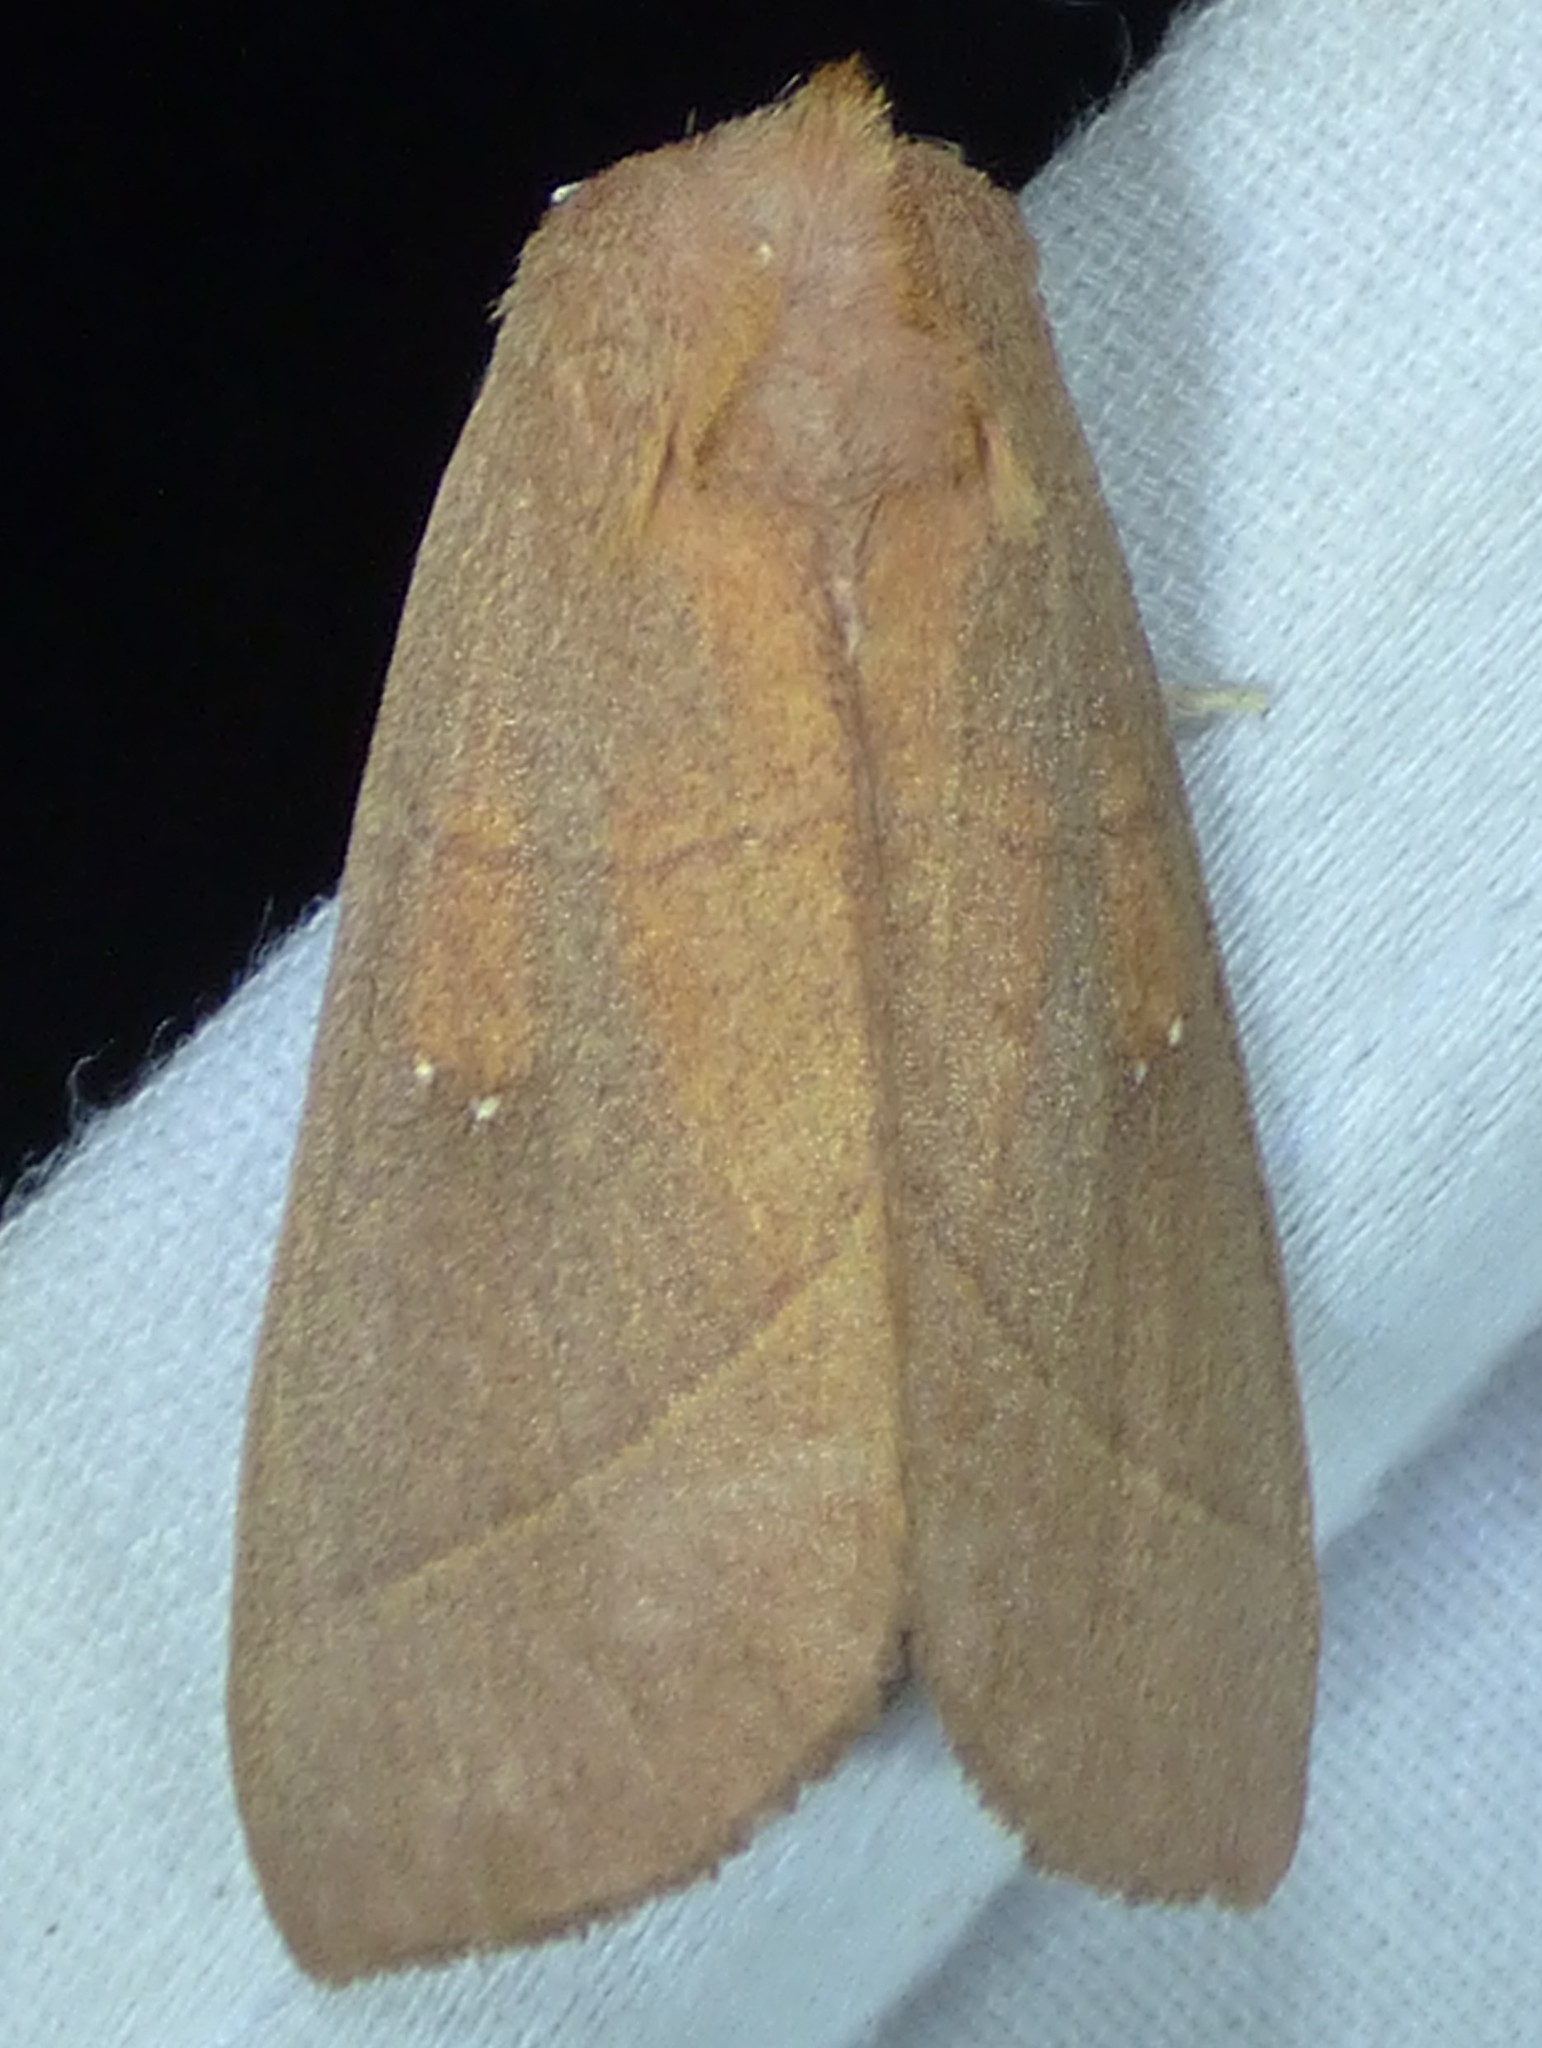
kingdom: Animalia
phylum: Arthropoda
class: Insecta
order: Lepidoptera
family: Notodontidae
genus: Nadata
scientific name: Nadata gibbosa
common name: White-dotted prominent
